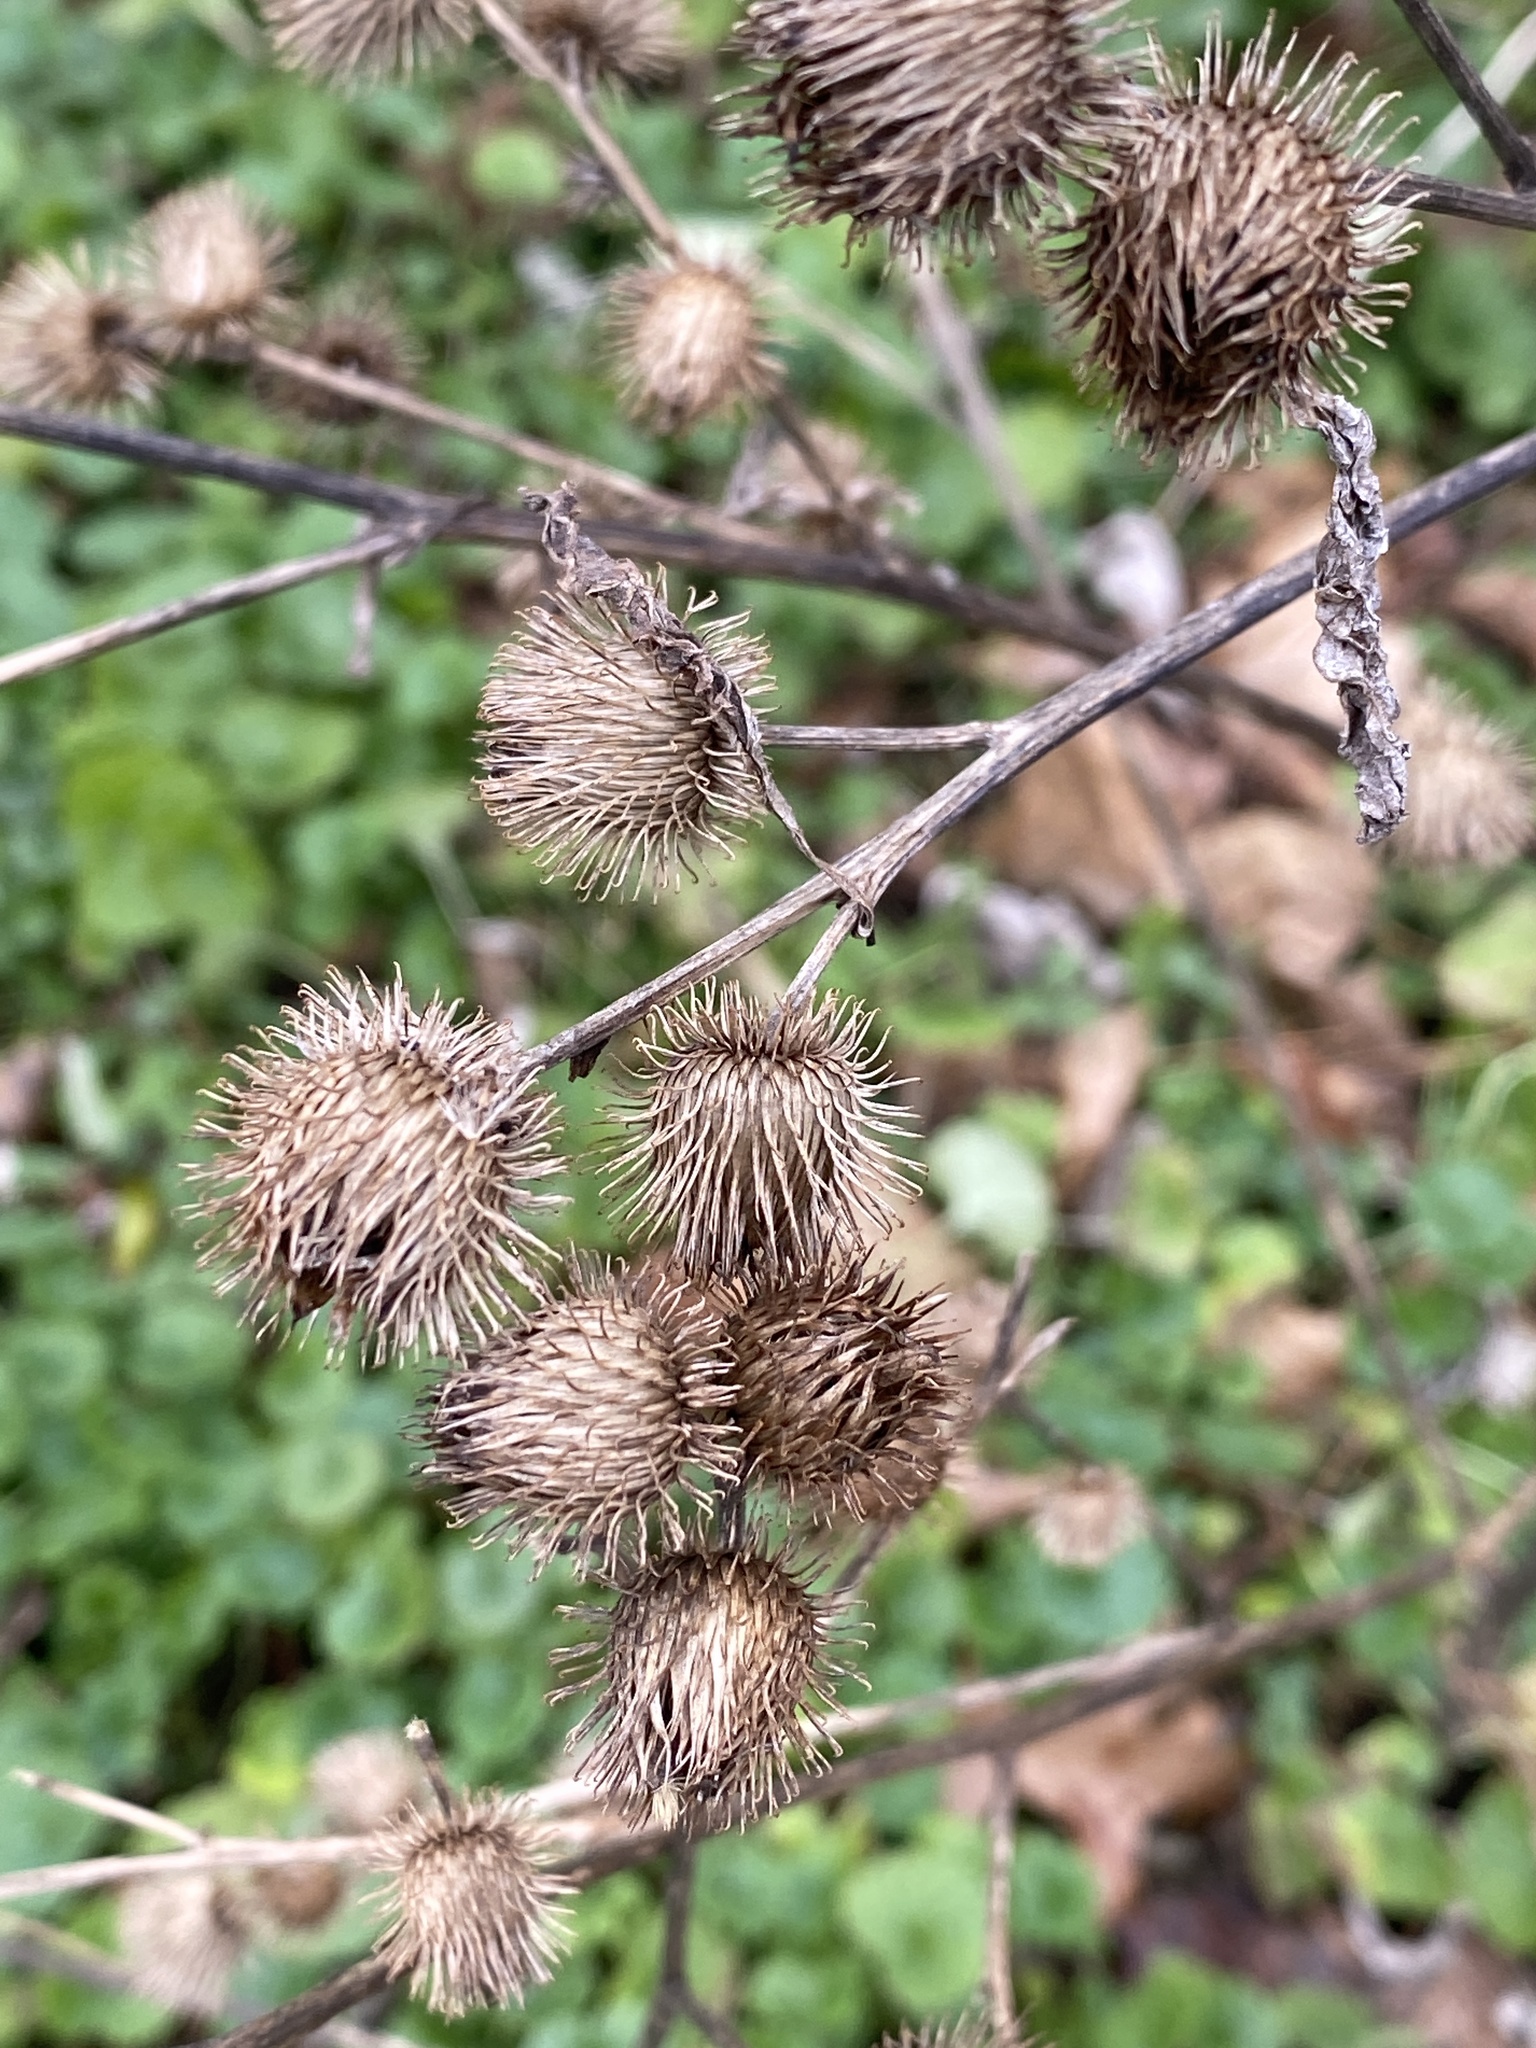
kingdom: Plantae
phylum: Tracheophyta
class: Magnoliopsida
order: Asterales
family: Asteraceae
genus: Arctium
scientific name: Arctium minus
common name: Lesser burdock
